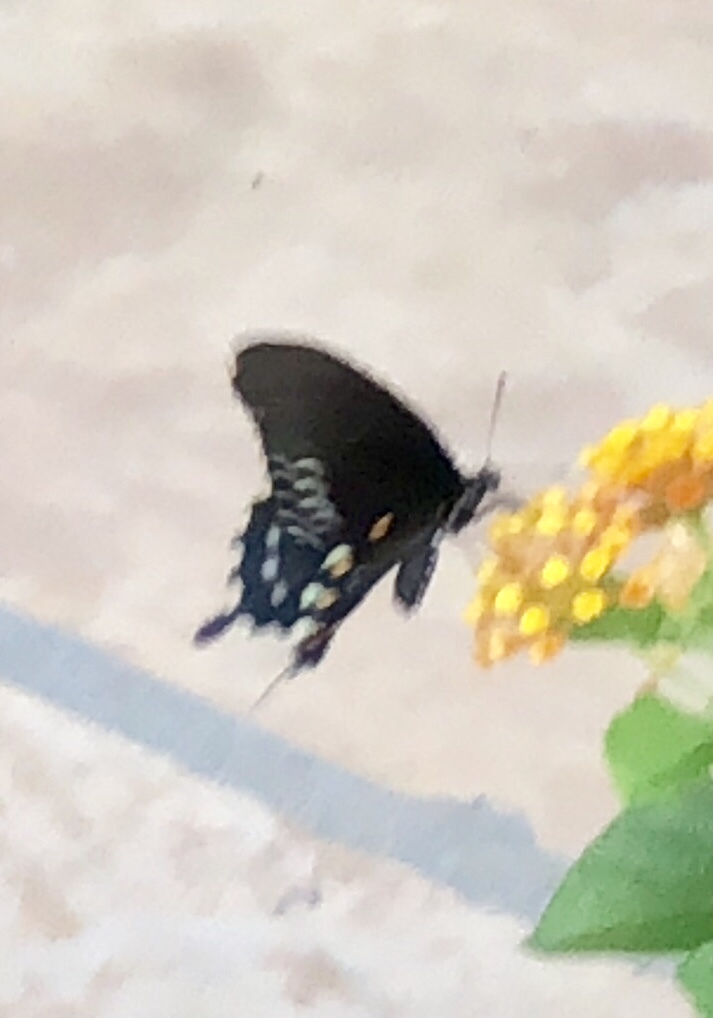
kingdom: Animalia
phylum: Arthropoda
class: Insecta
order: Lepidoptera
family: Papilionidae
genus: Battus
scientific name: Battus philenor
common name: Pipevine swallowtail
